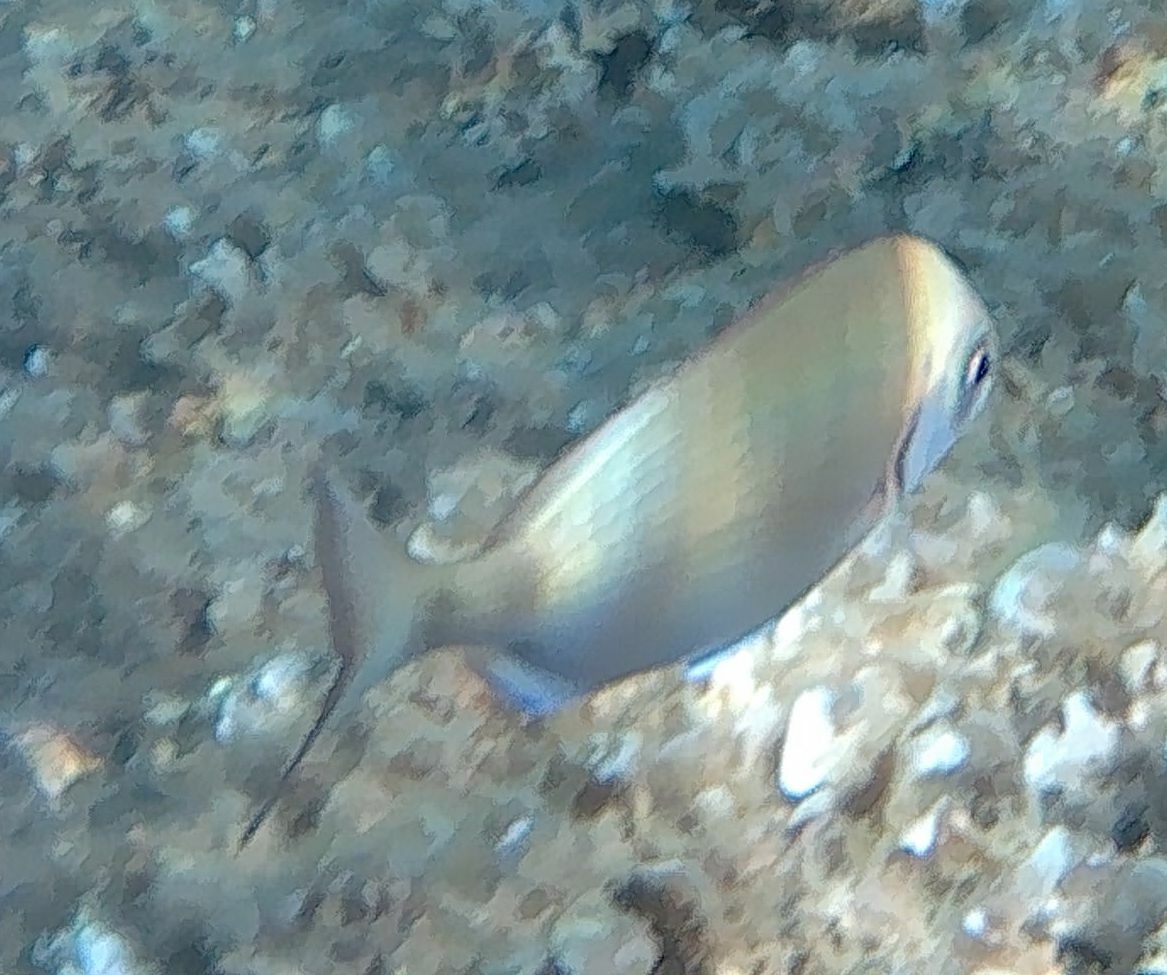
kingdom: Animalia
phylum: Chordata
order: Perciformes
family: Sparidae
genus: Diplodus
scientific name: Diplodus sargus
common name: White seabream
